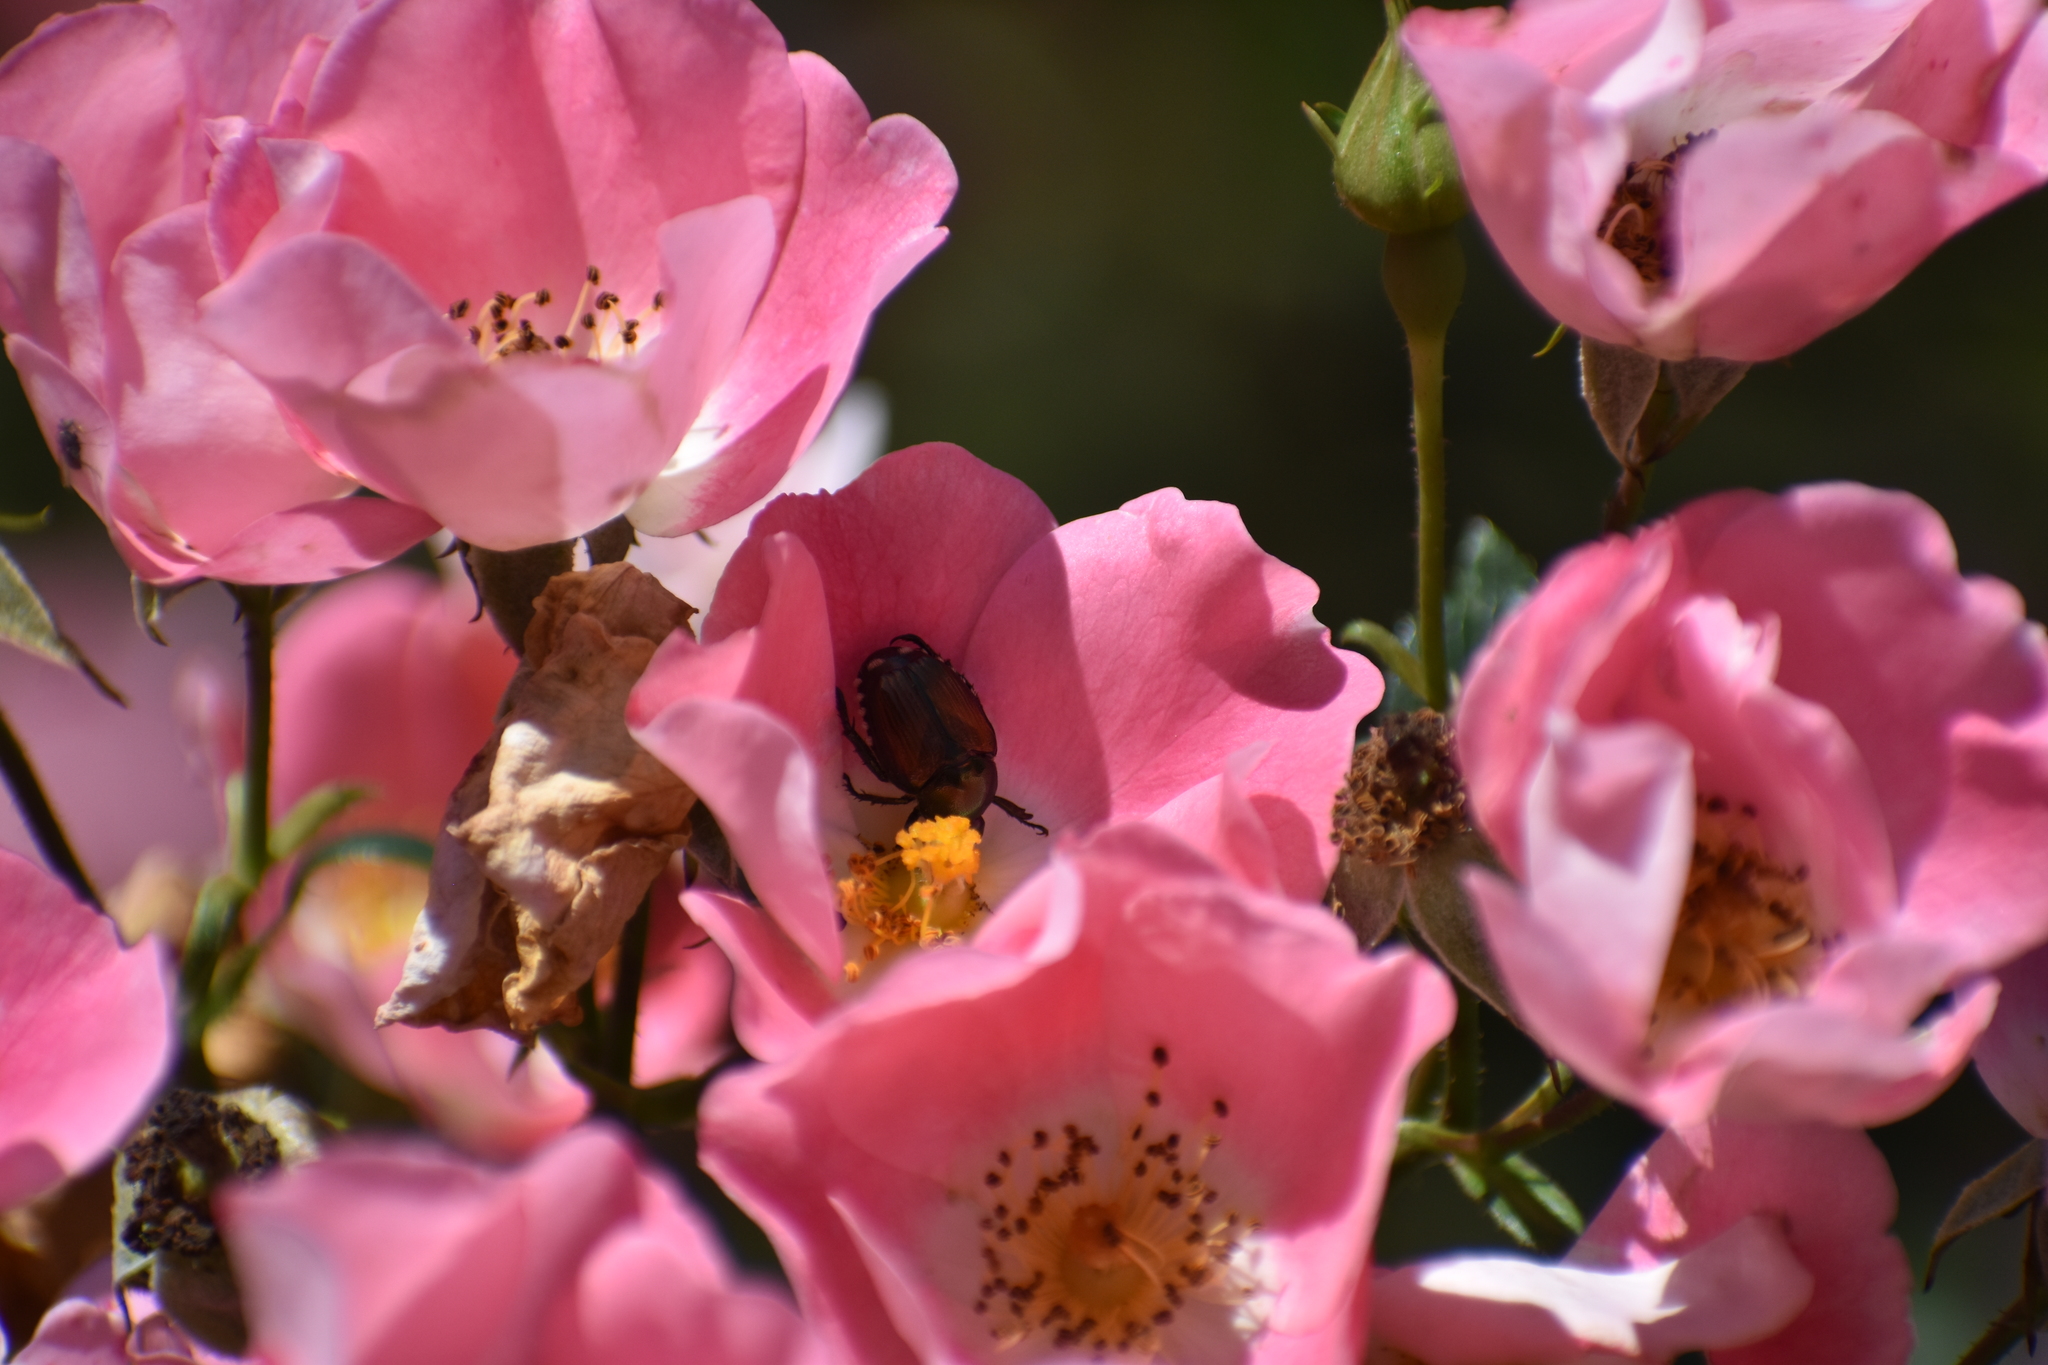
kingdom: Animalia
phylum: Arthropoda
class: Insecta
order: Coleoptera
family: Scarabaeidae
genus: Popillia
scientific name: Popillia japonica
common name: Japanese beetle
